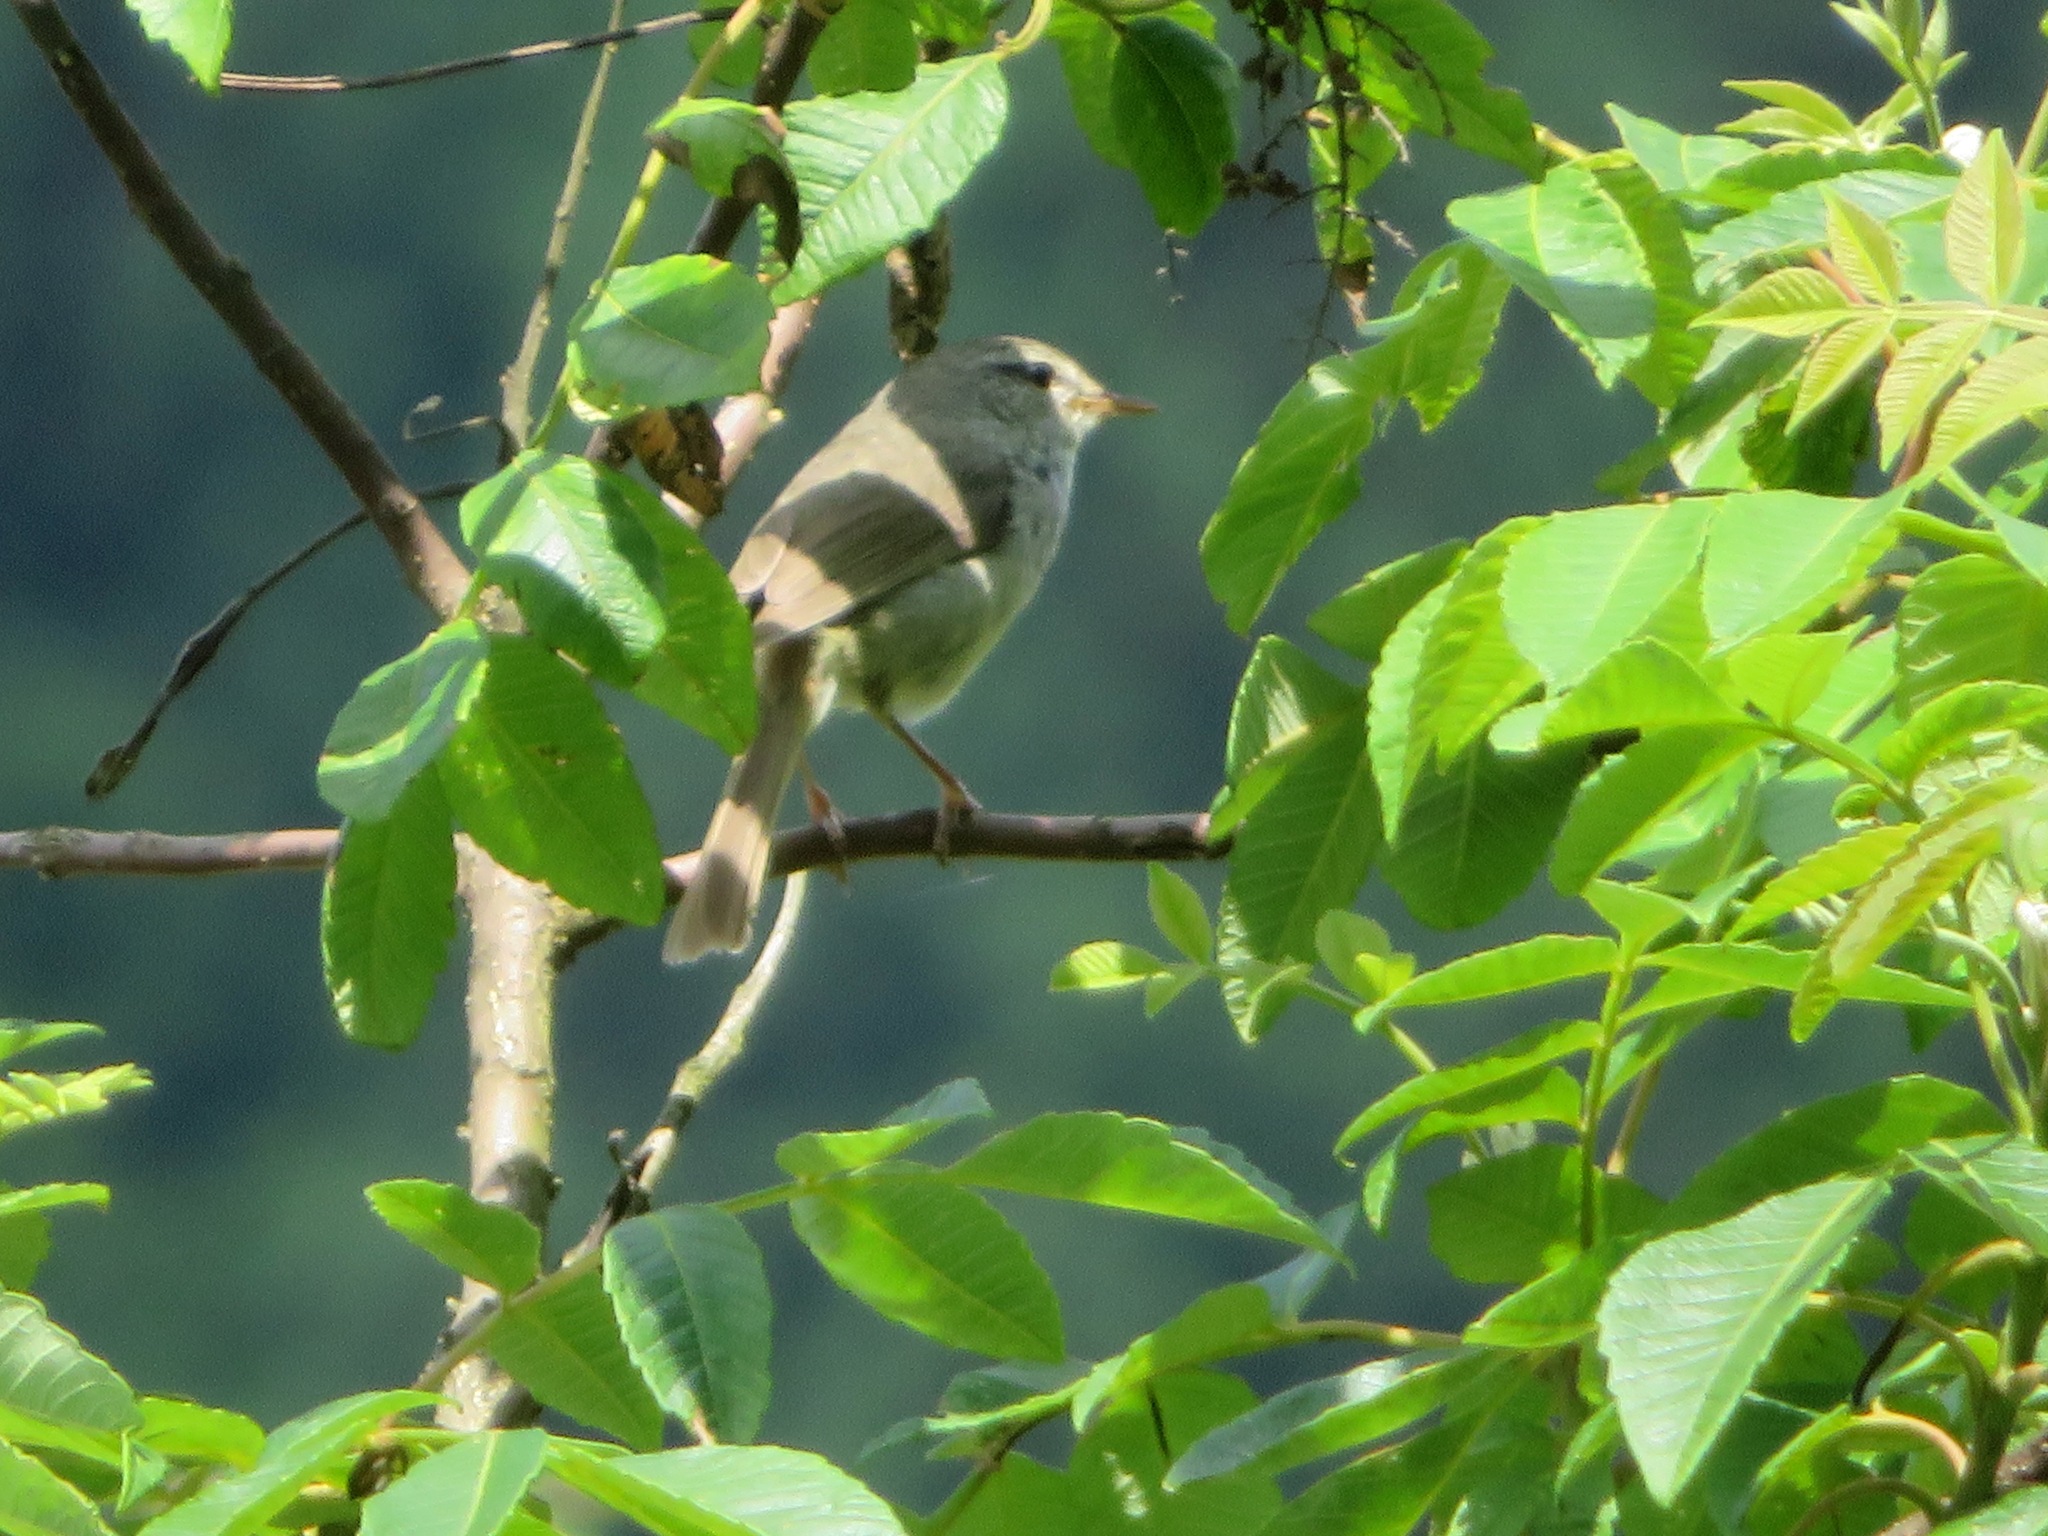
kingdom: Animalia
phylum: Chordata
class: Aves
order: Passeriformes
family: Cettiidae
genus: Horornis
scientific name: Horornis diphone
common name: Japanese bush warbler
